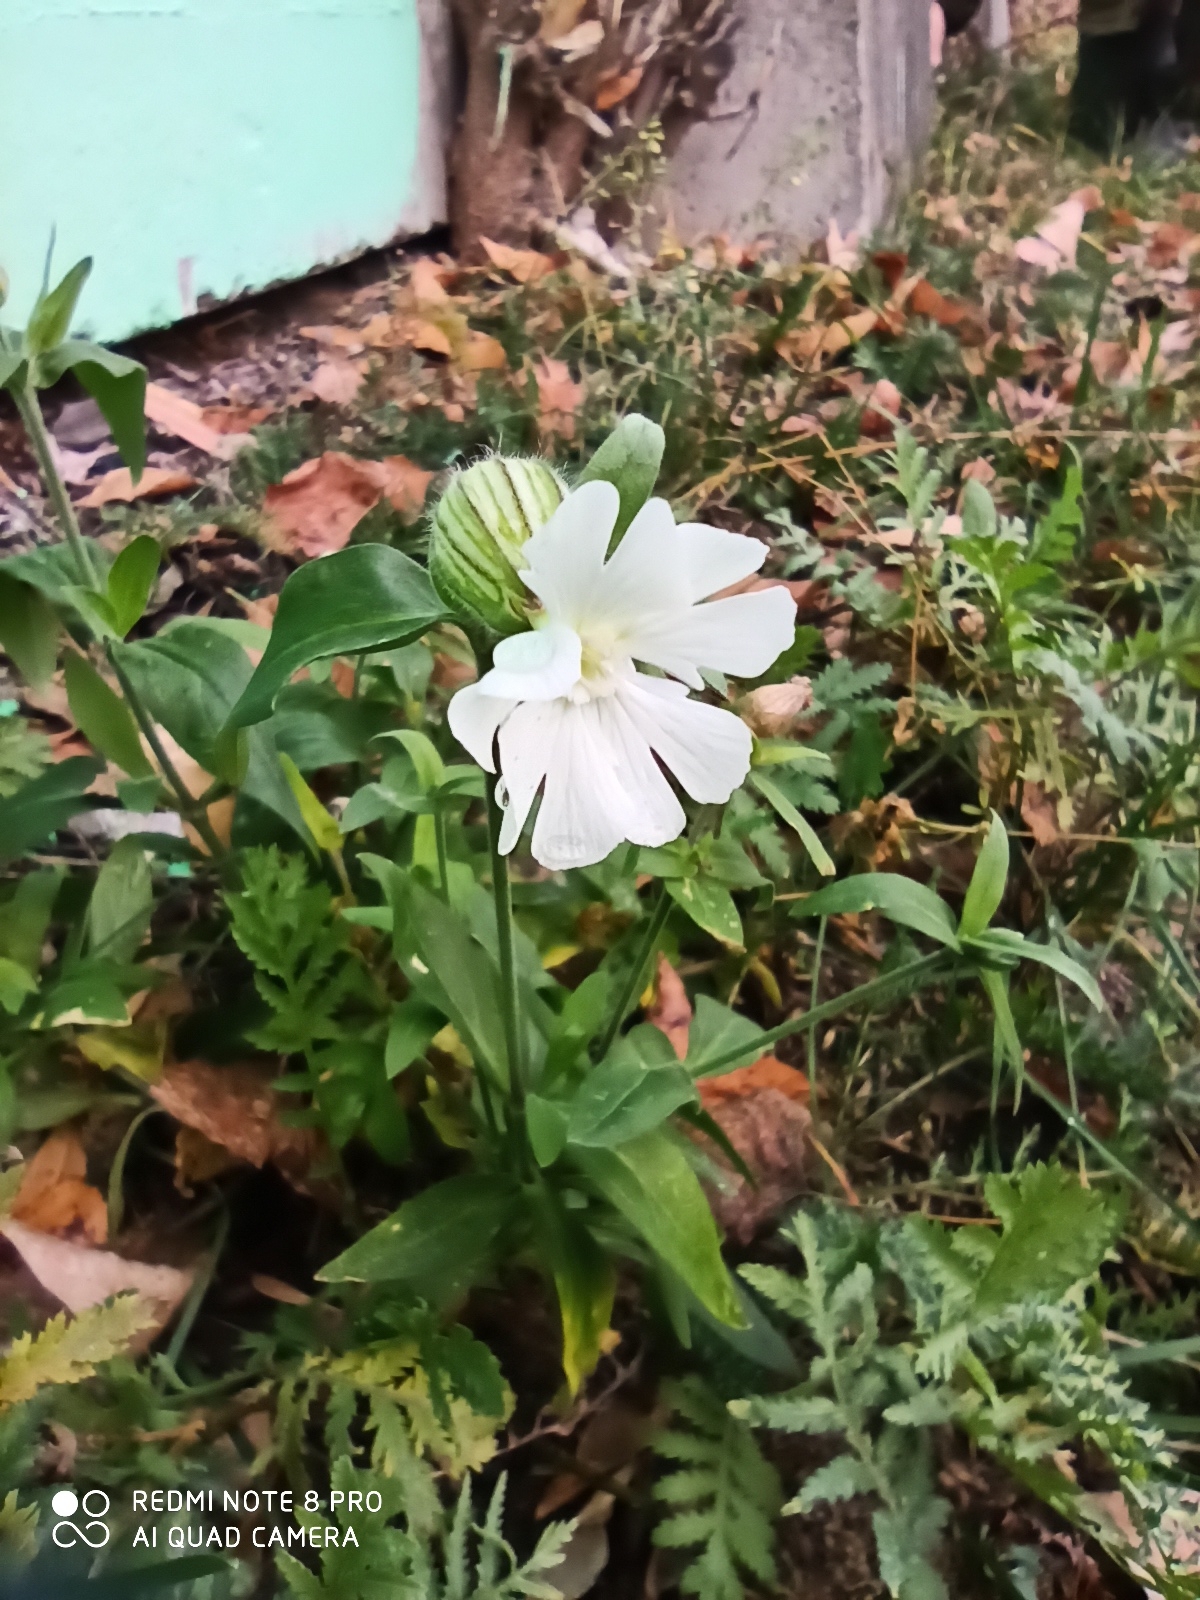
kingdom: Plantae
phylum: Tracheophyta
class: Magnoliopsida
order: Caryophyllales
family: Caryophyllaceae
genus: Silene
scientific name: Silene latifolia
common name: White campion
